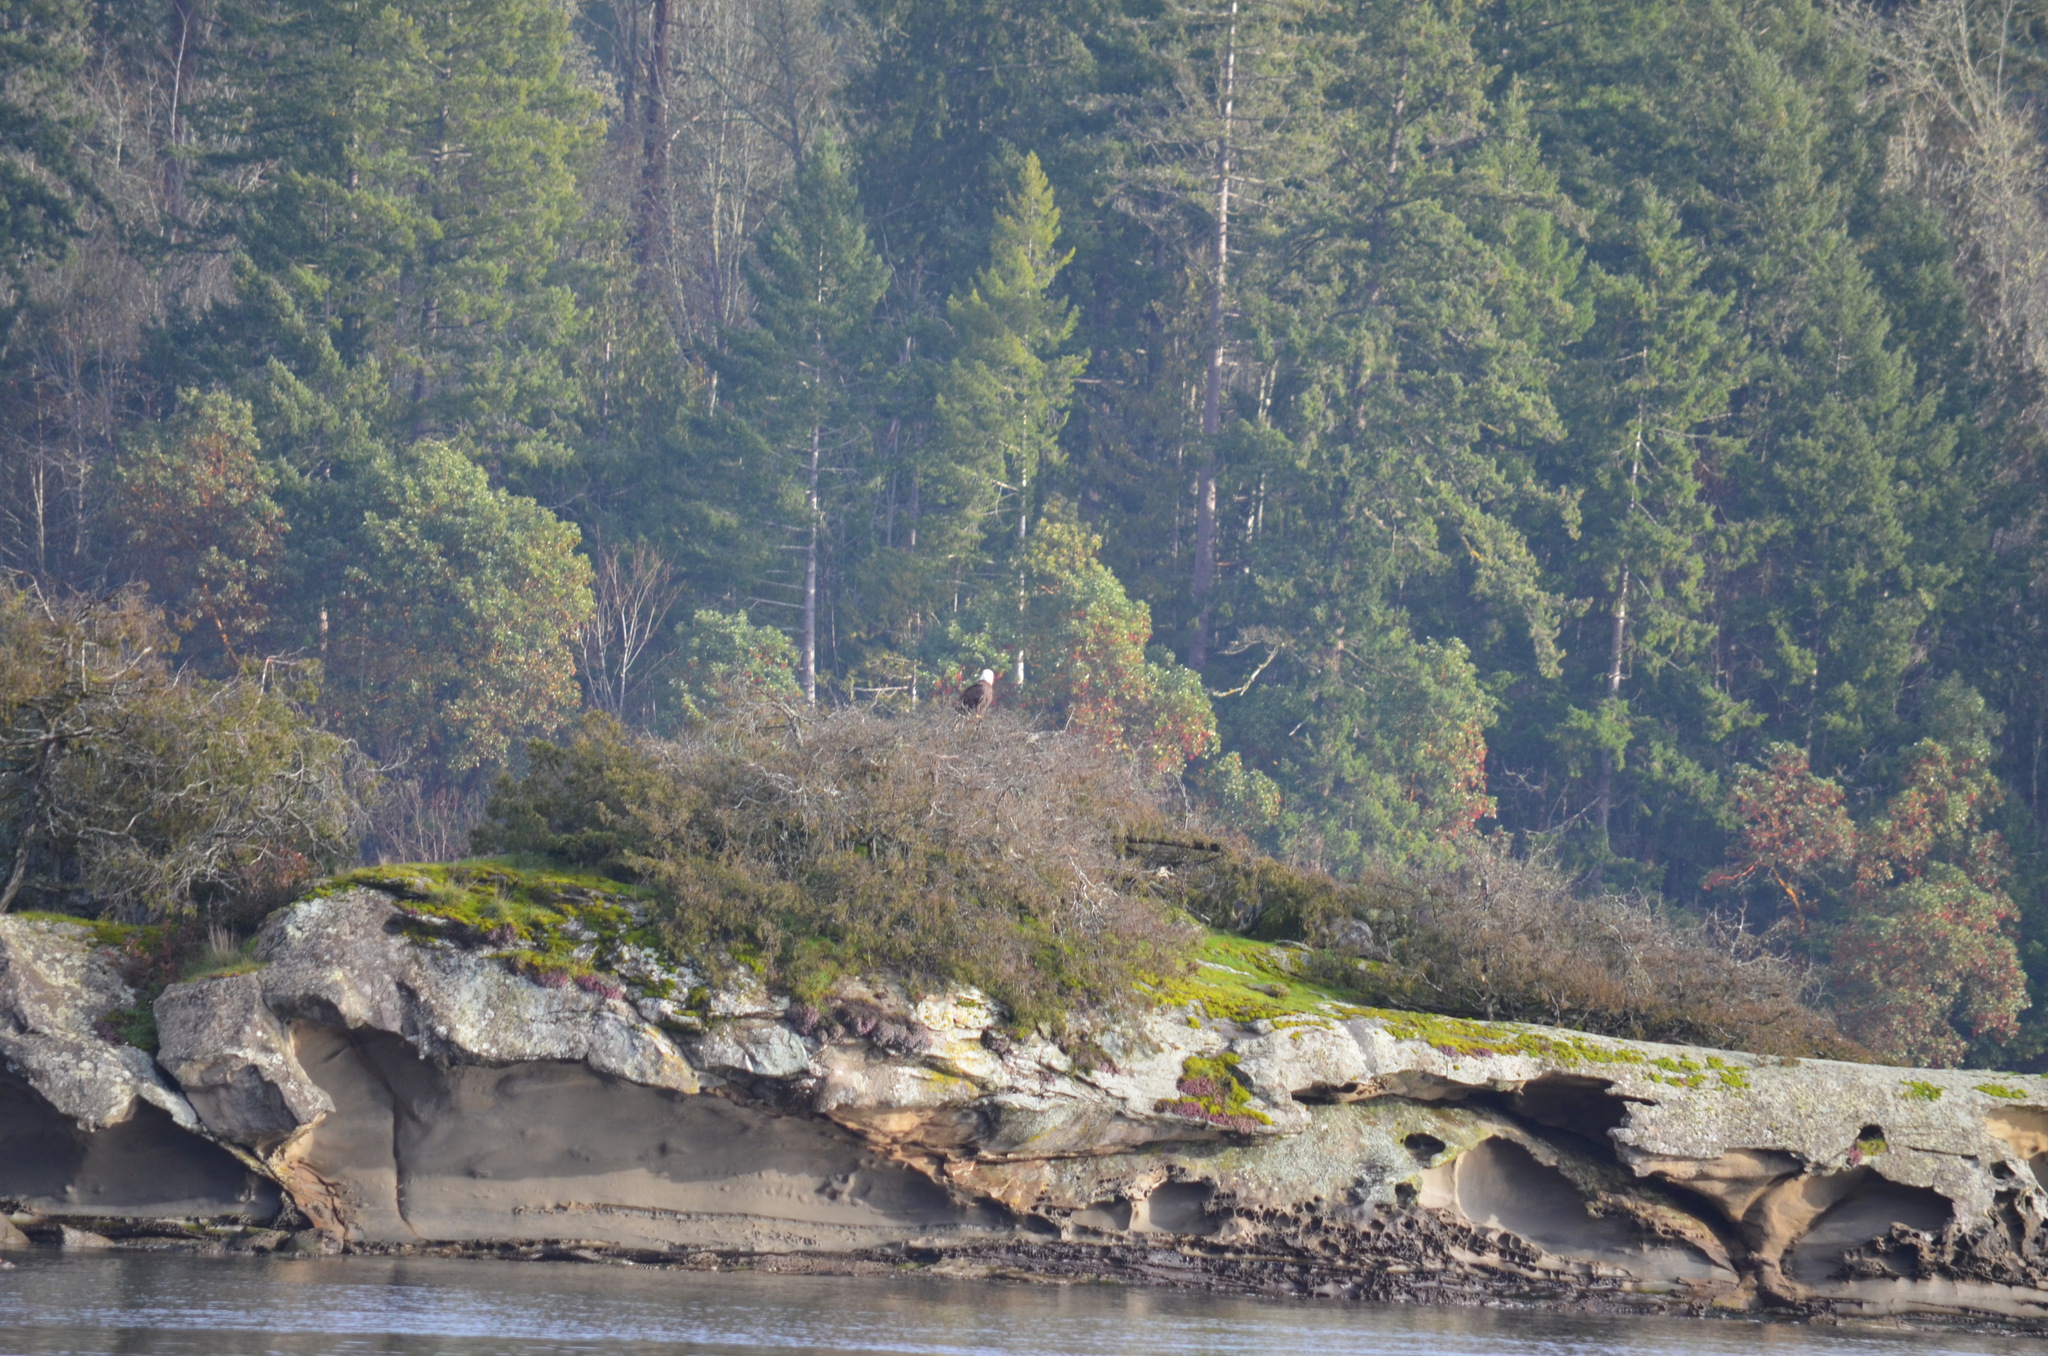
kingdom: Animalia
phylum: Chordata
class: Aves
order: Accipitriformes
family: Accipitridae
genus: Haliaeetus
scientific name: Haliaeetus leucocephalus
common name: Bald eagle
